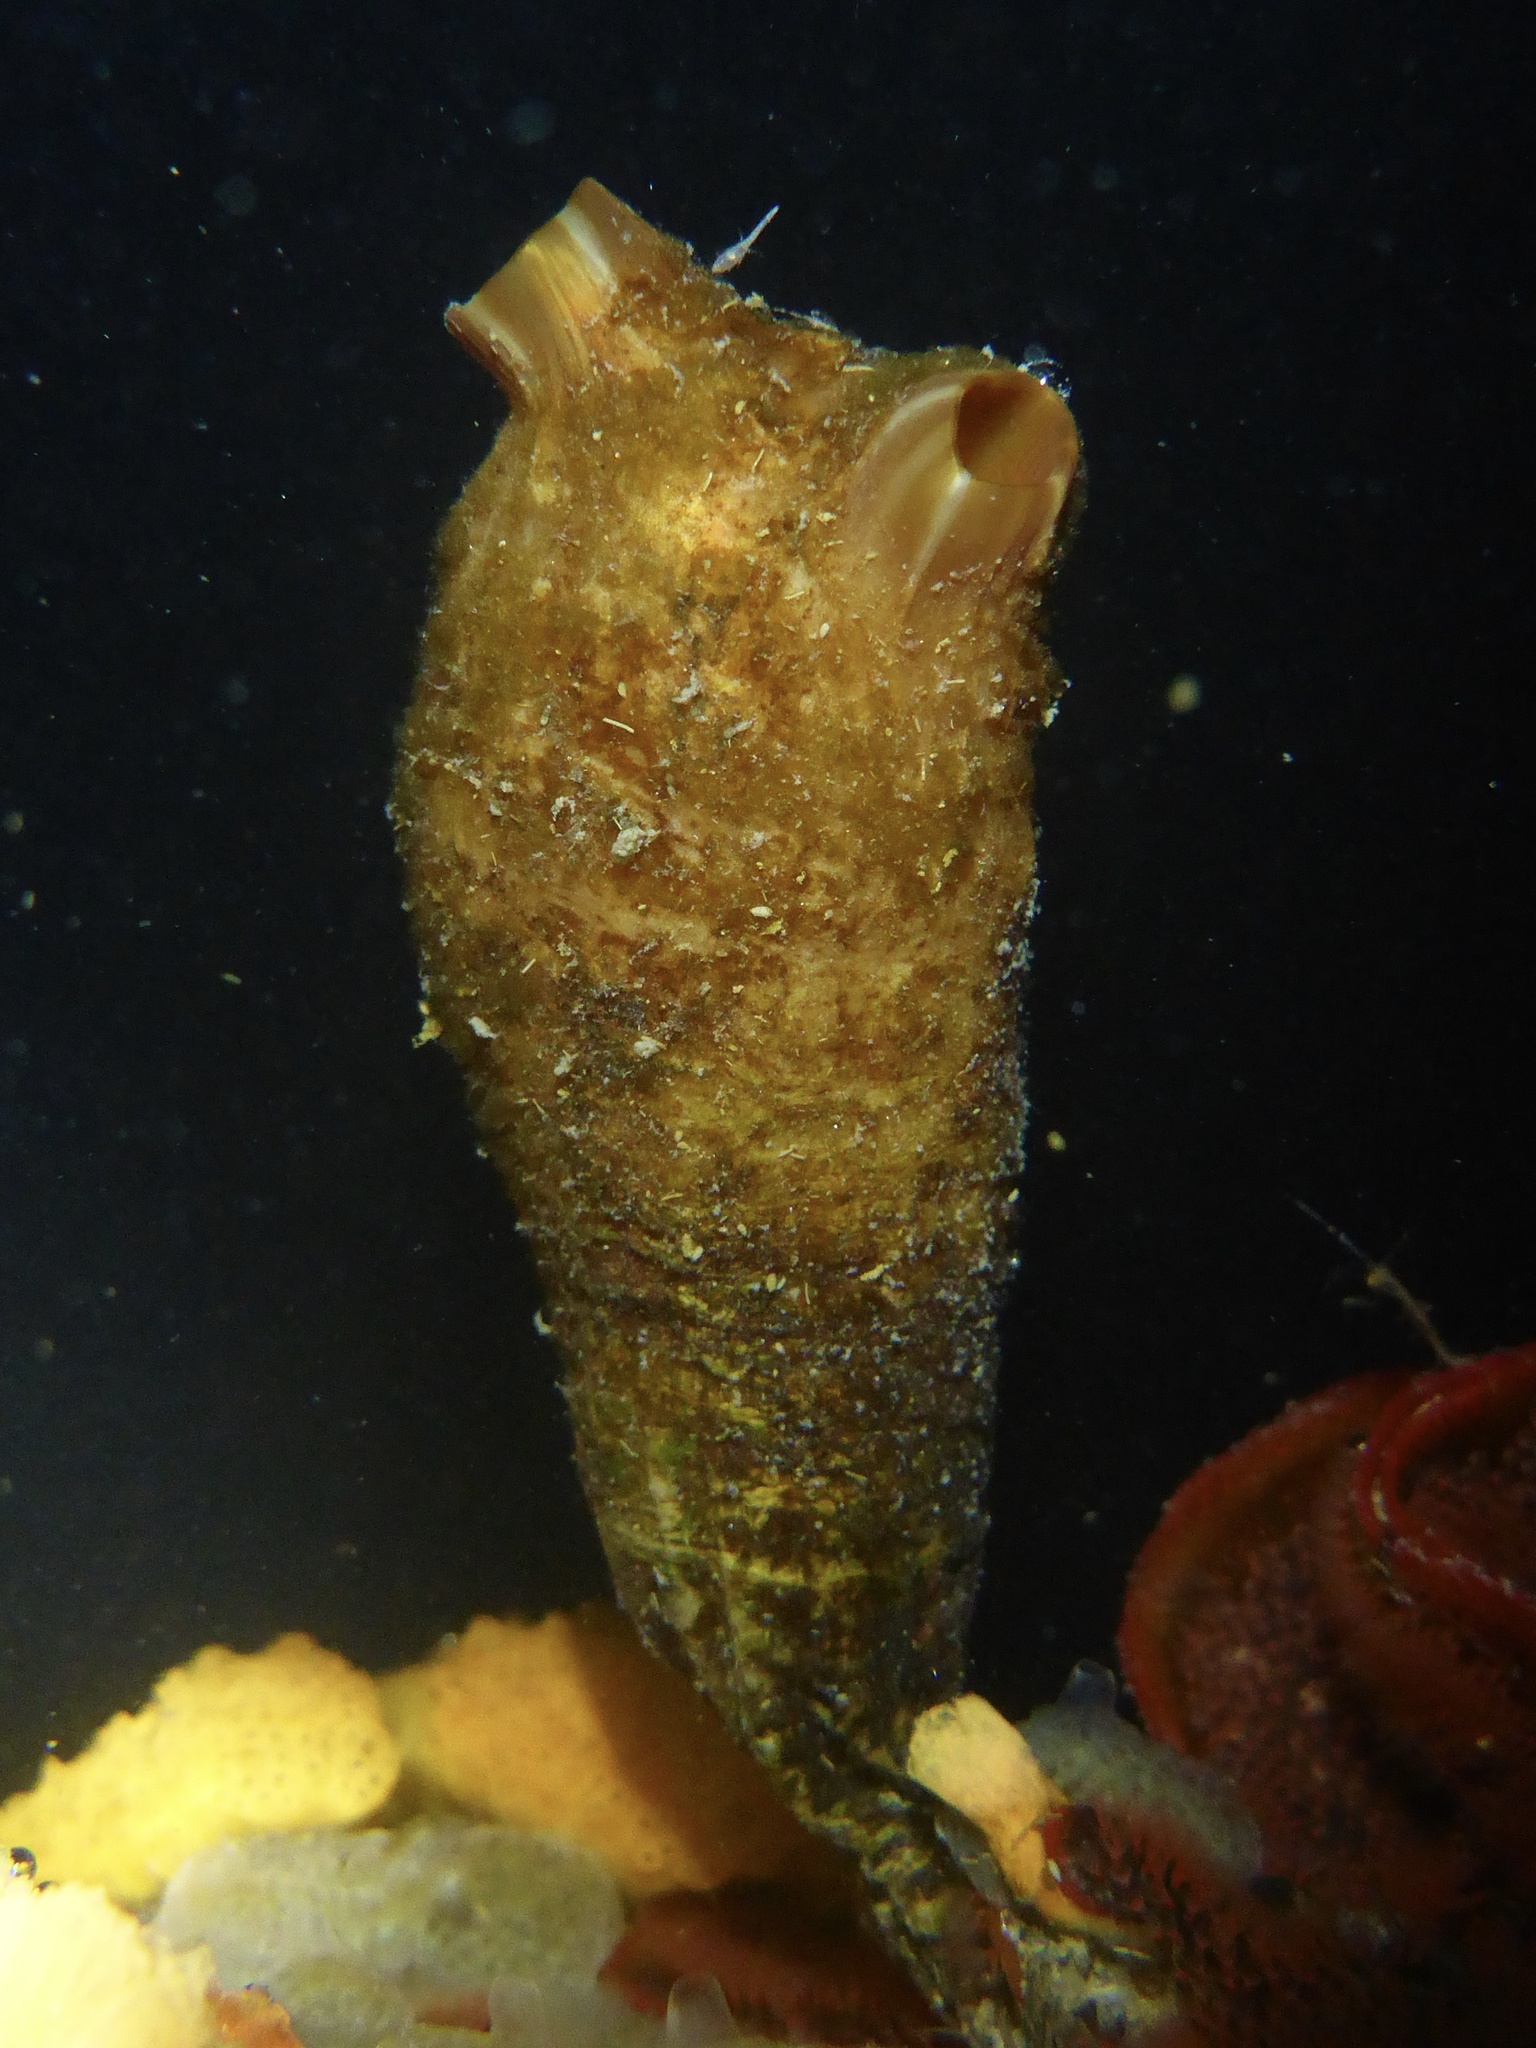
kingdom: Animalia
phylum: Chordata
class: Ascidiacea
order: Stolidobranchia
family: Styelidae
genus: Styela
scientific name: Styela clava
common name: Leathery sea squirt
